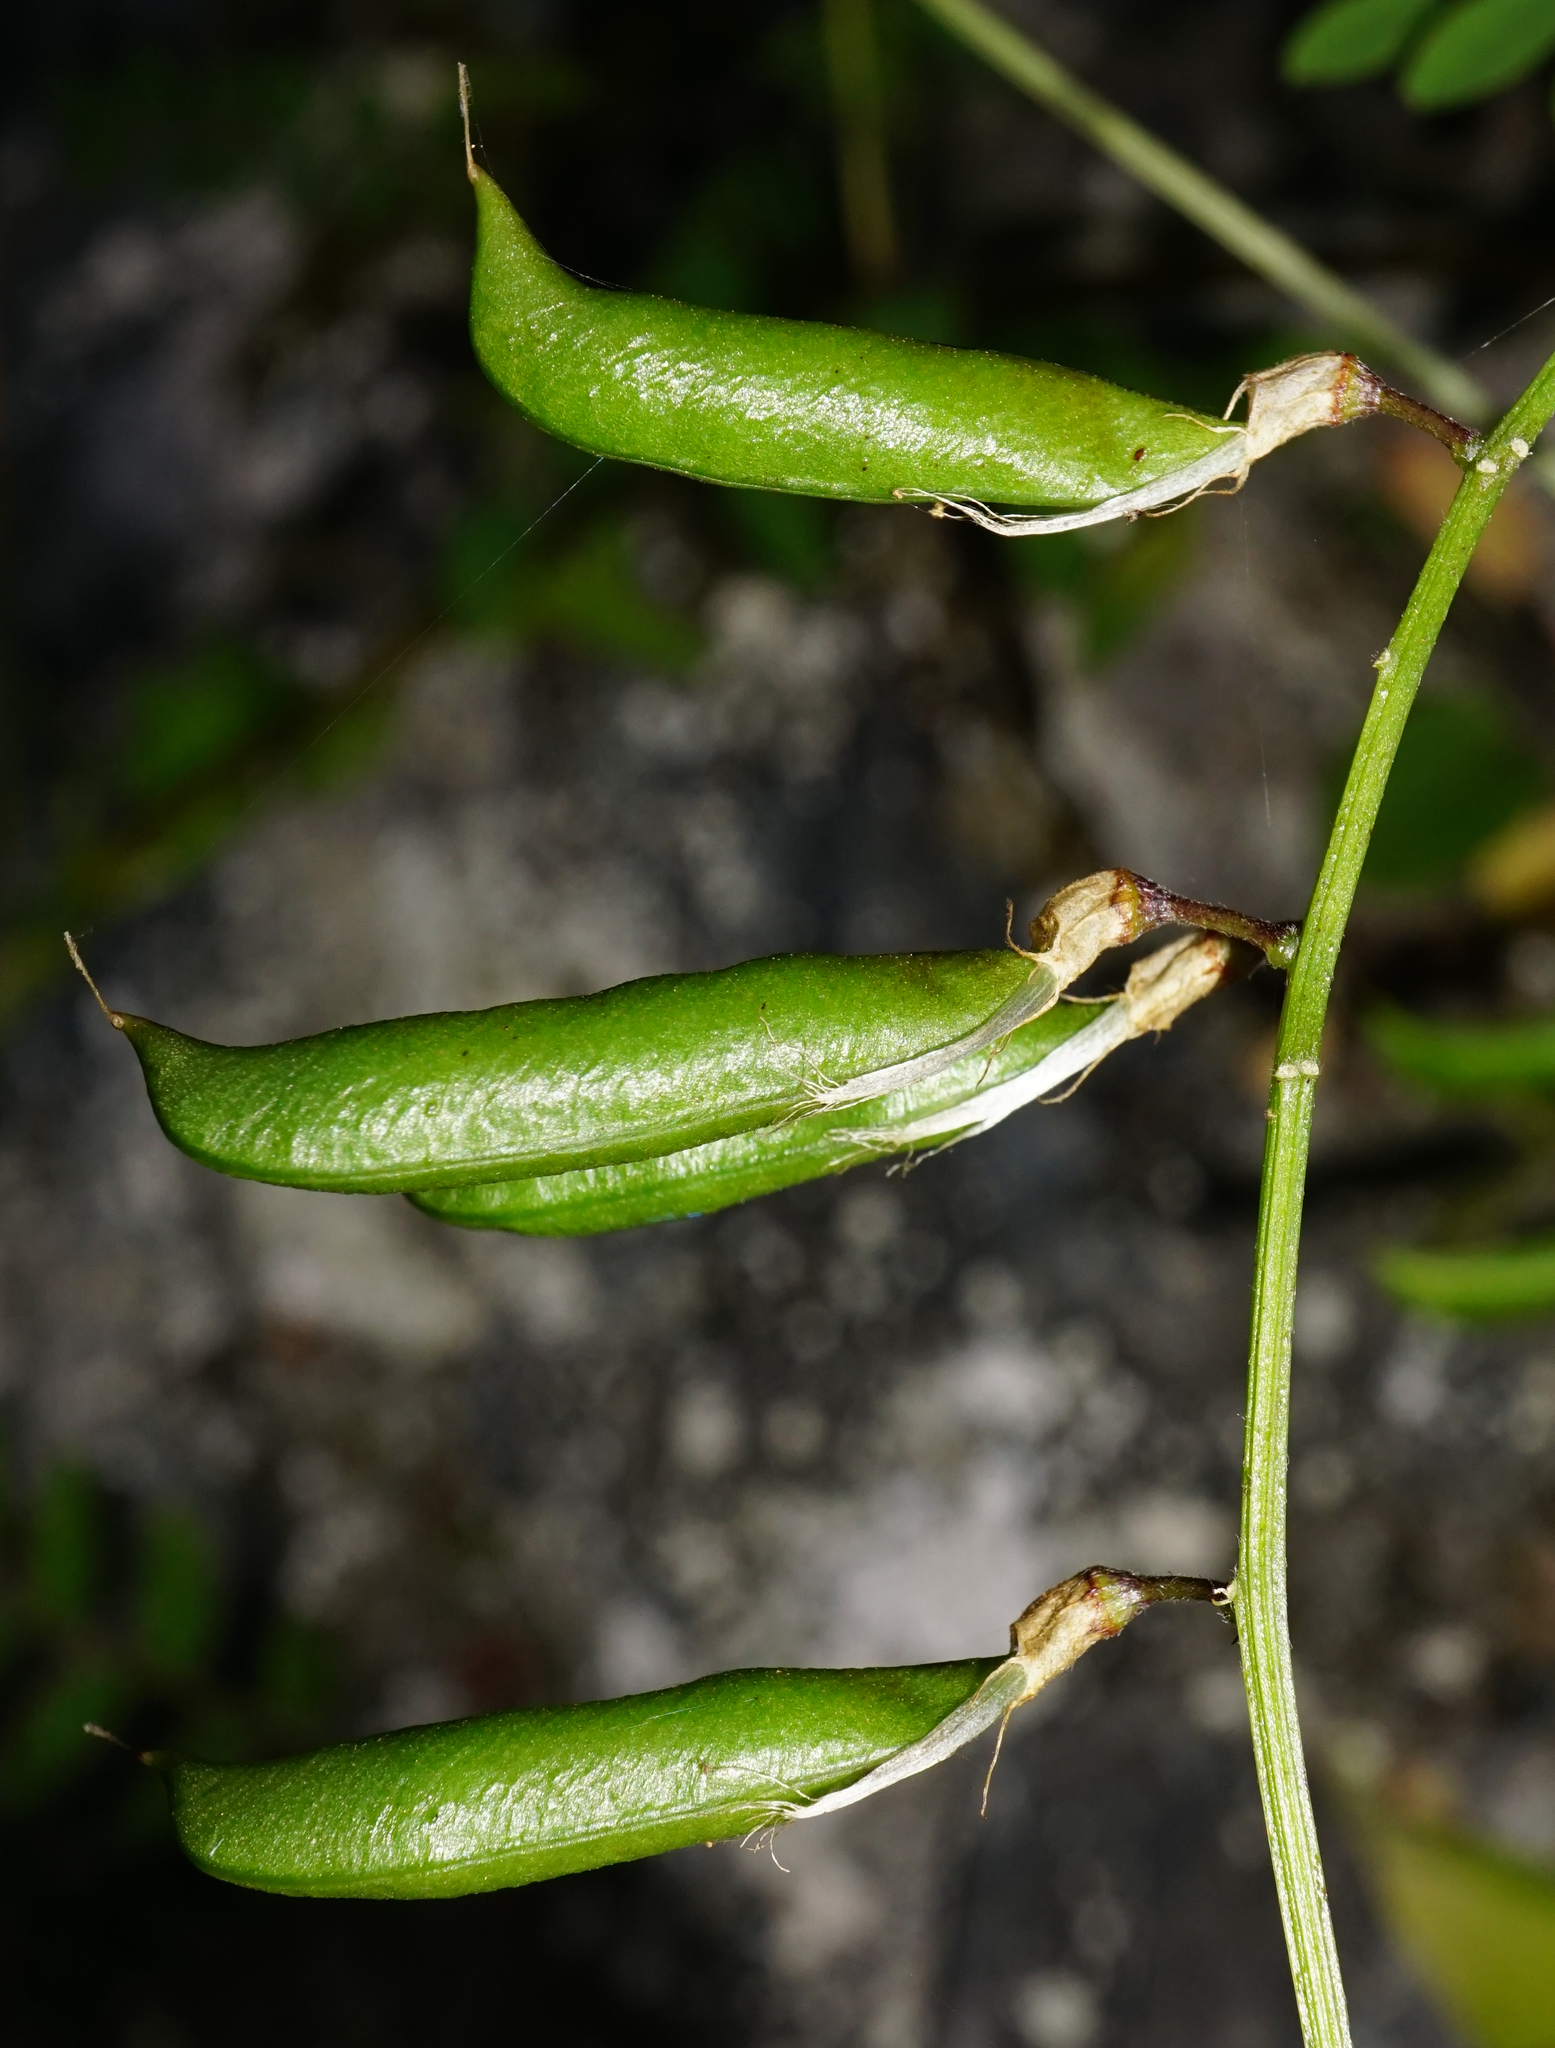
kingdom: Plantae
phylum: Tracheophyta
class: Magnoliopsida
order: Fabales
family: Fabaceae
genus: Vicia
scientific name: Vicia sylvatica
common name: Wood vetch
